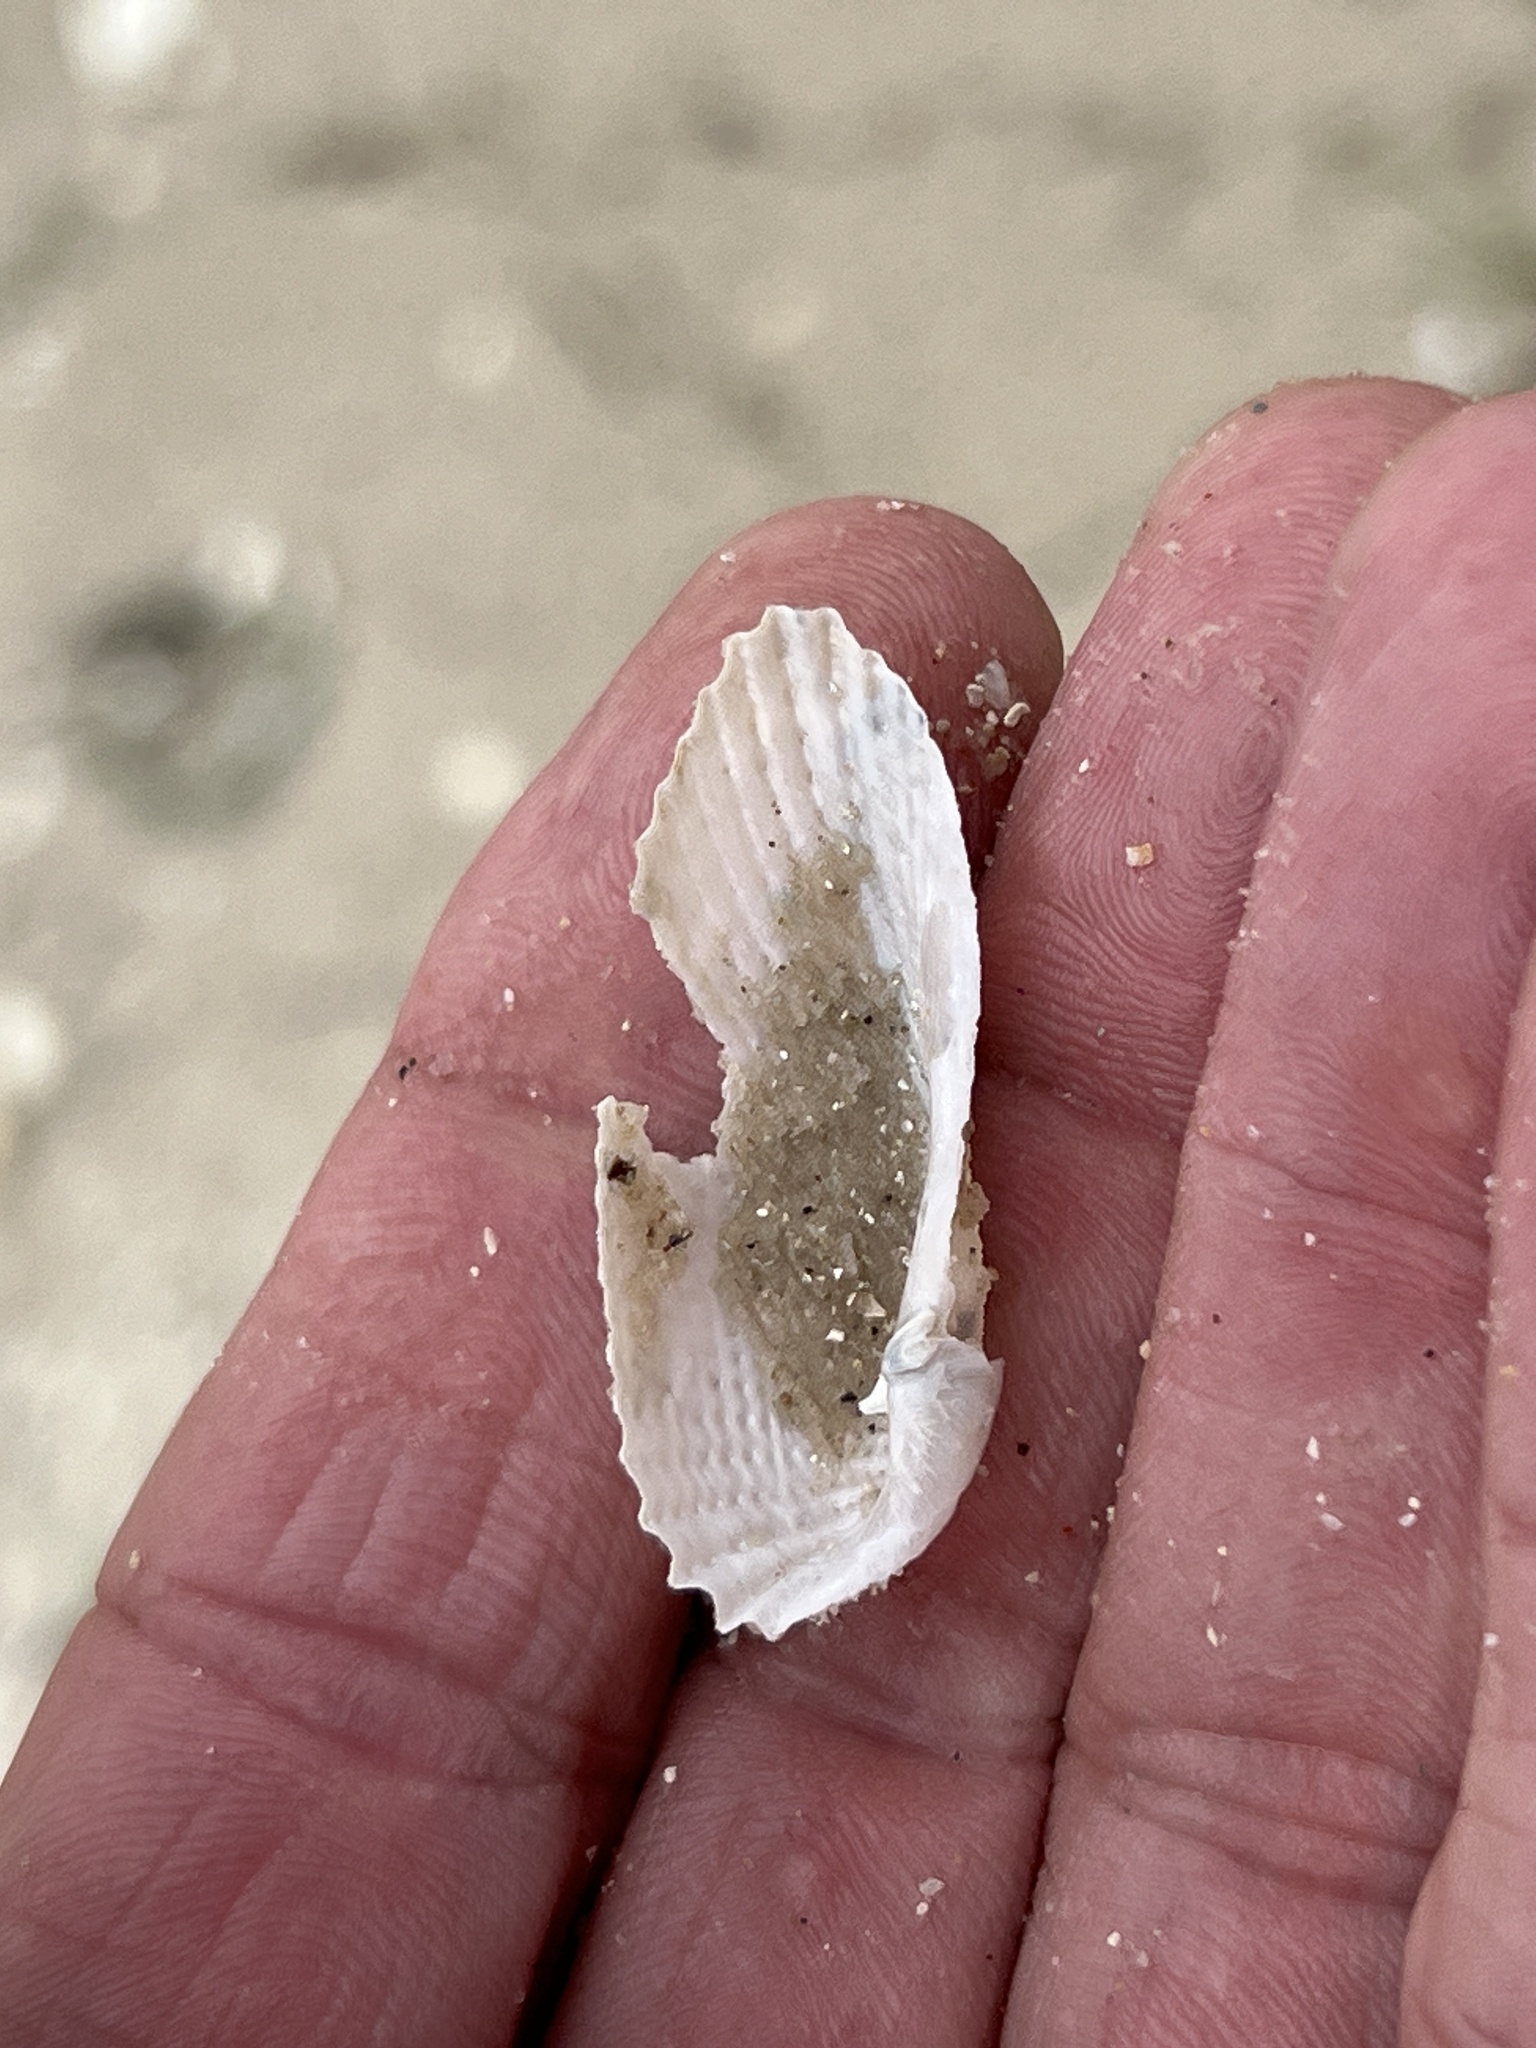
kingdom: Animalia
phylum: Mollusca
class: Bivalvia
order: Myida
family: Pholadidae
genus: Cyrtopleura
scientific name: Cyrtopleura costata
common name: Angel wing
